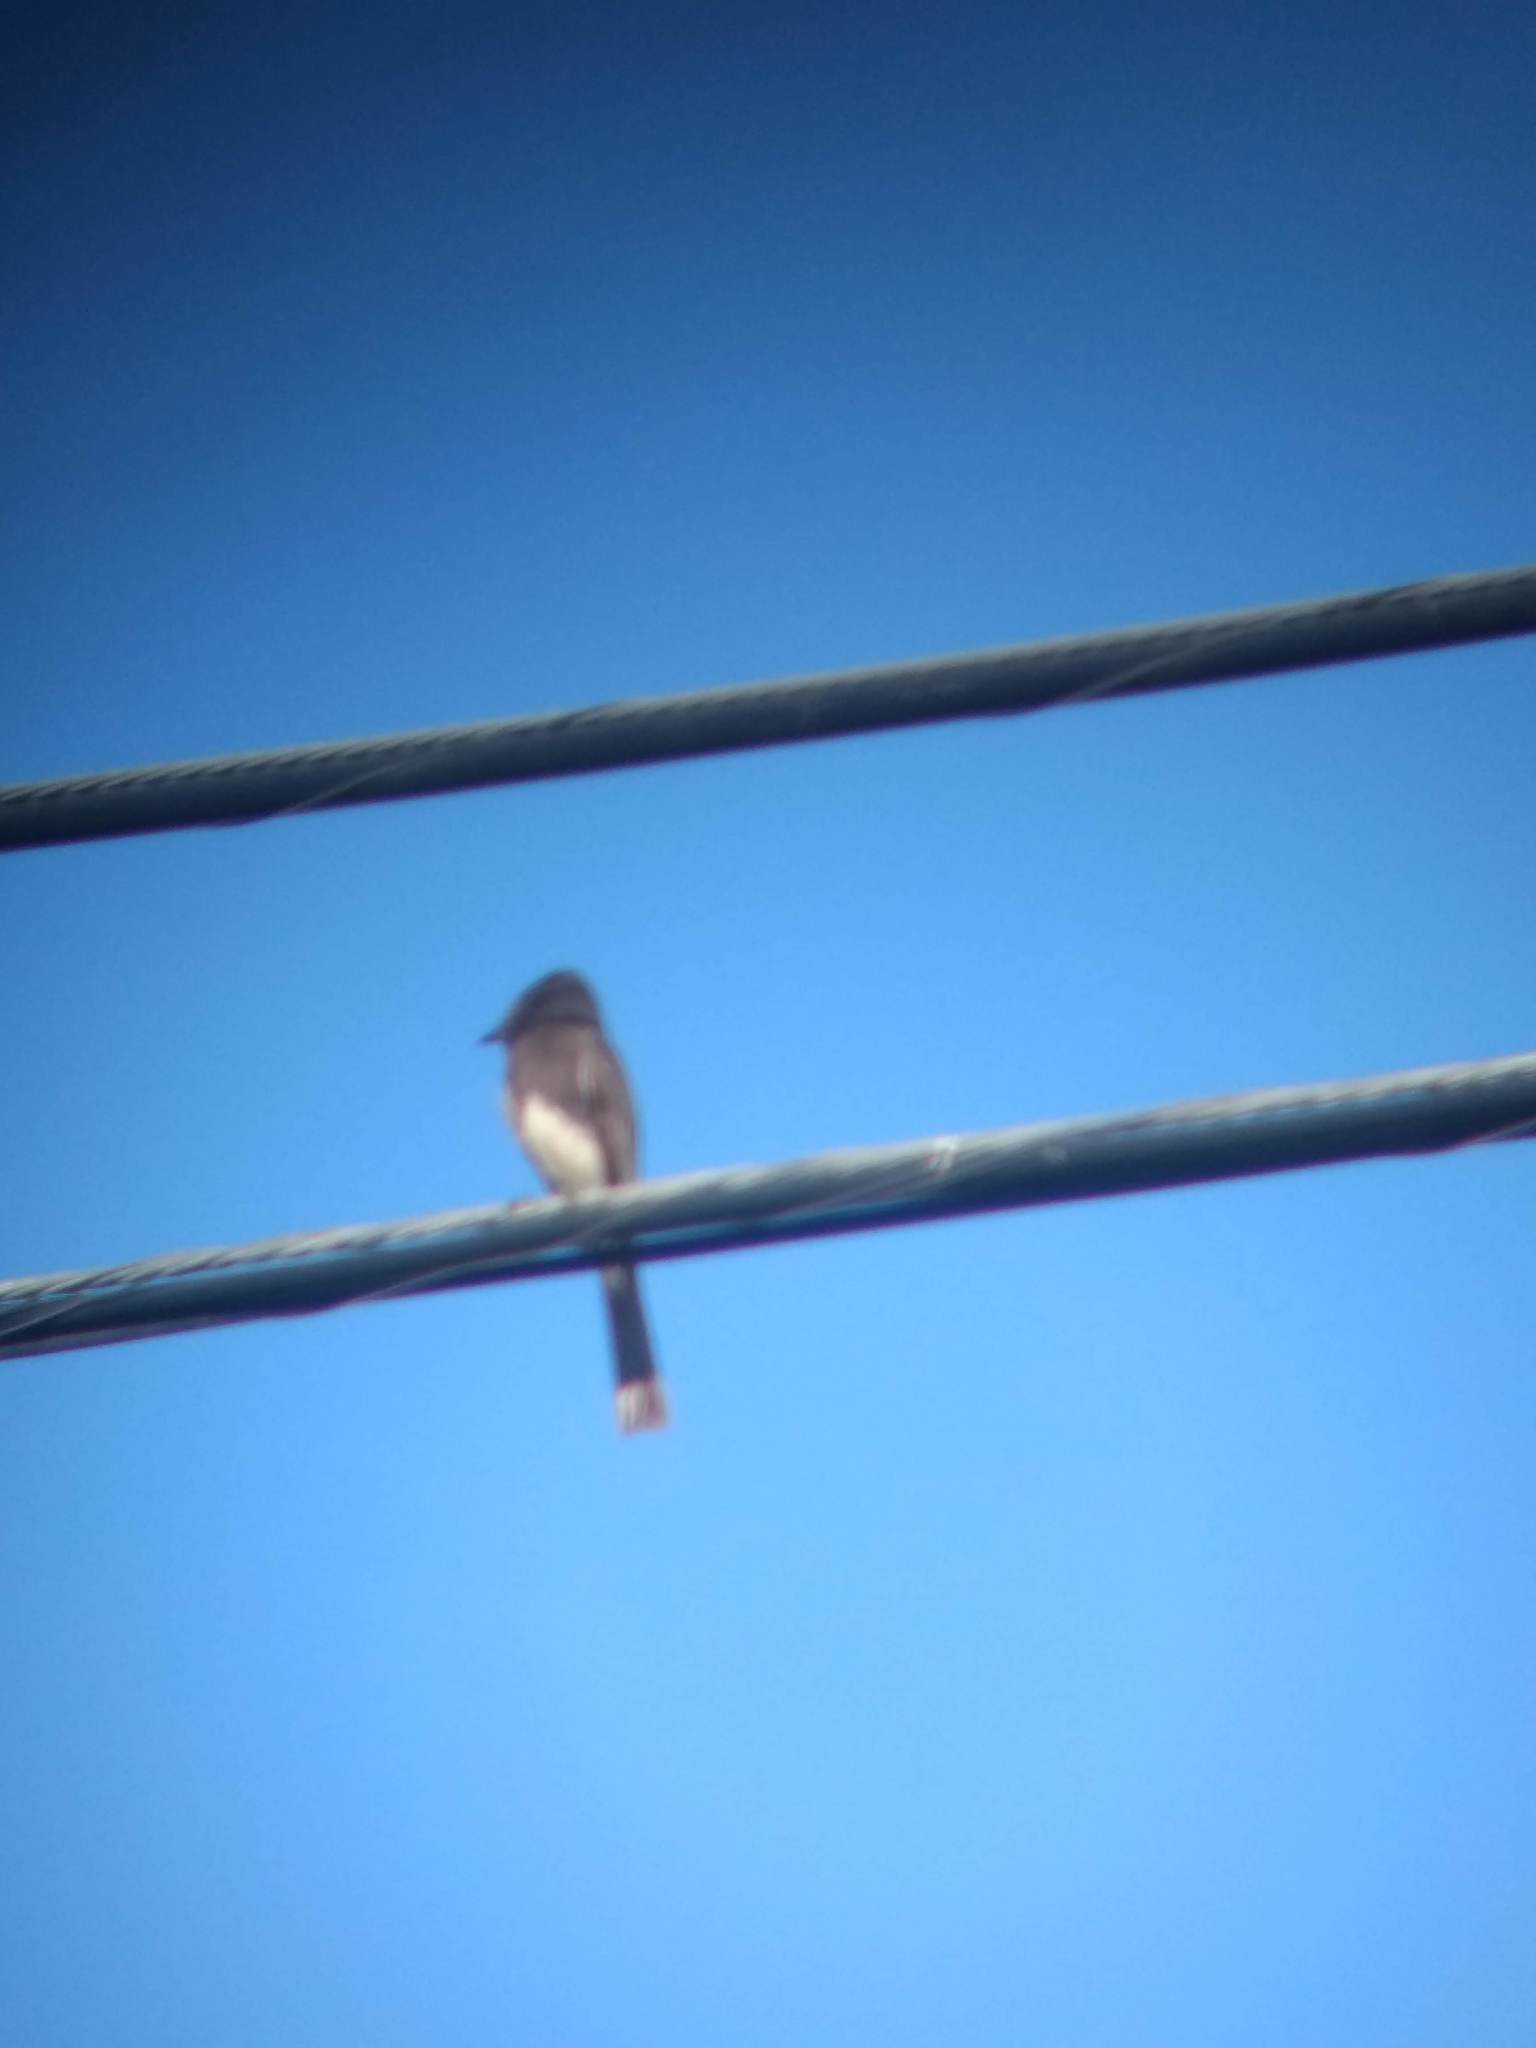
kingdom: Animalia
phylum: Chordata
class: Aves
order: Passeriformes
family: Tyrannidae
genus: Sayornis
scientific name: Sayornis nigricans
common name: Black phoebe
